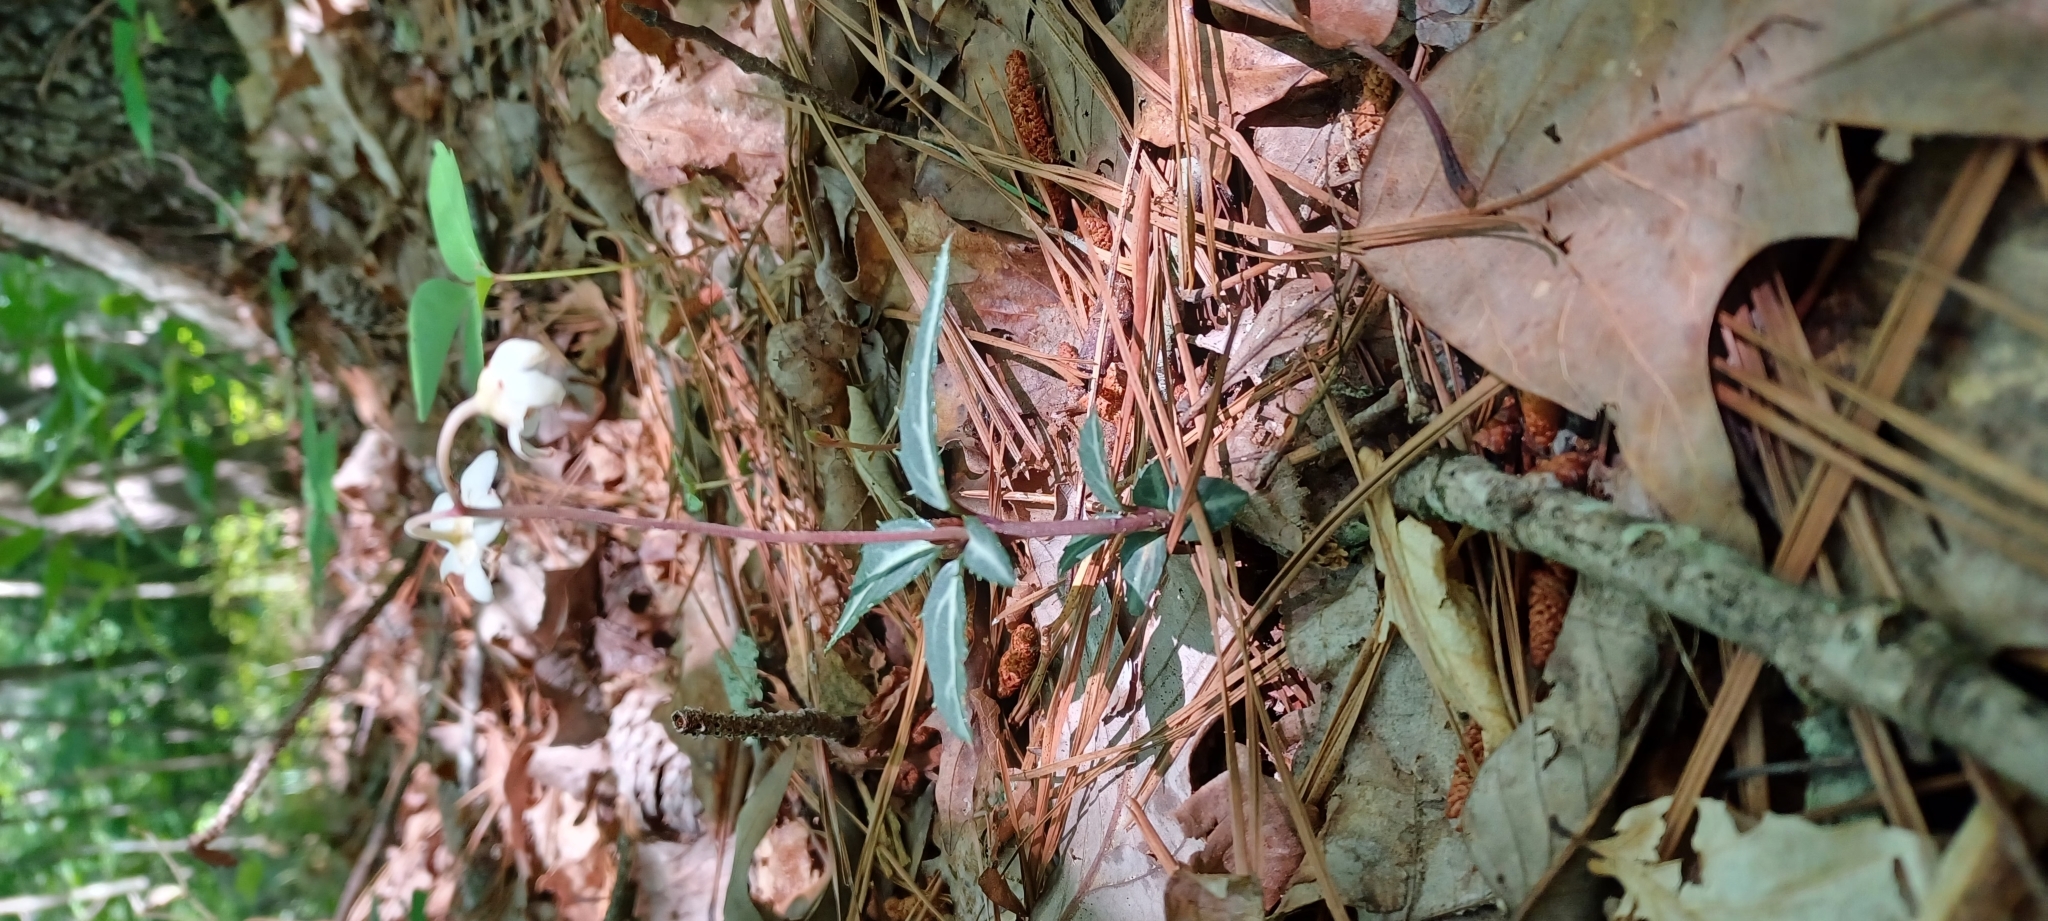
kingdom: Plantae
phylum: Tracheophyta
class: Magnoliopsida
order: Ericales
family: Ericaceae
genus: Chimaphila
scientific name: Chimaphila maculata
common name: Spotted pipsissewa
